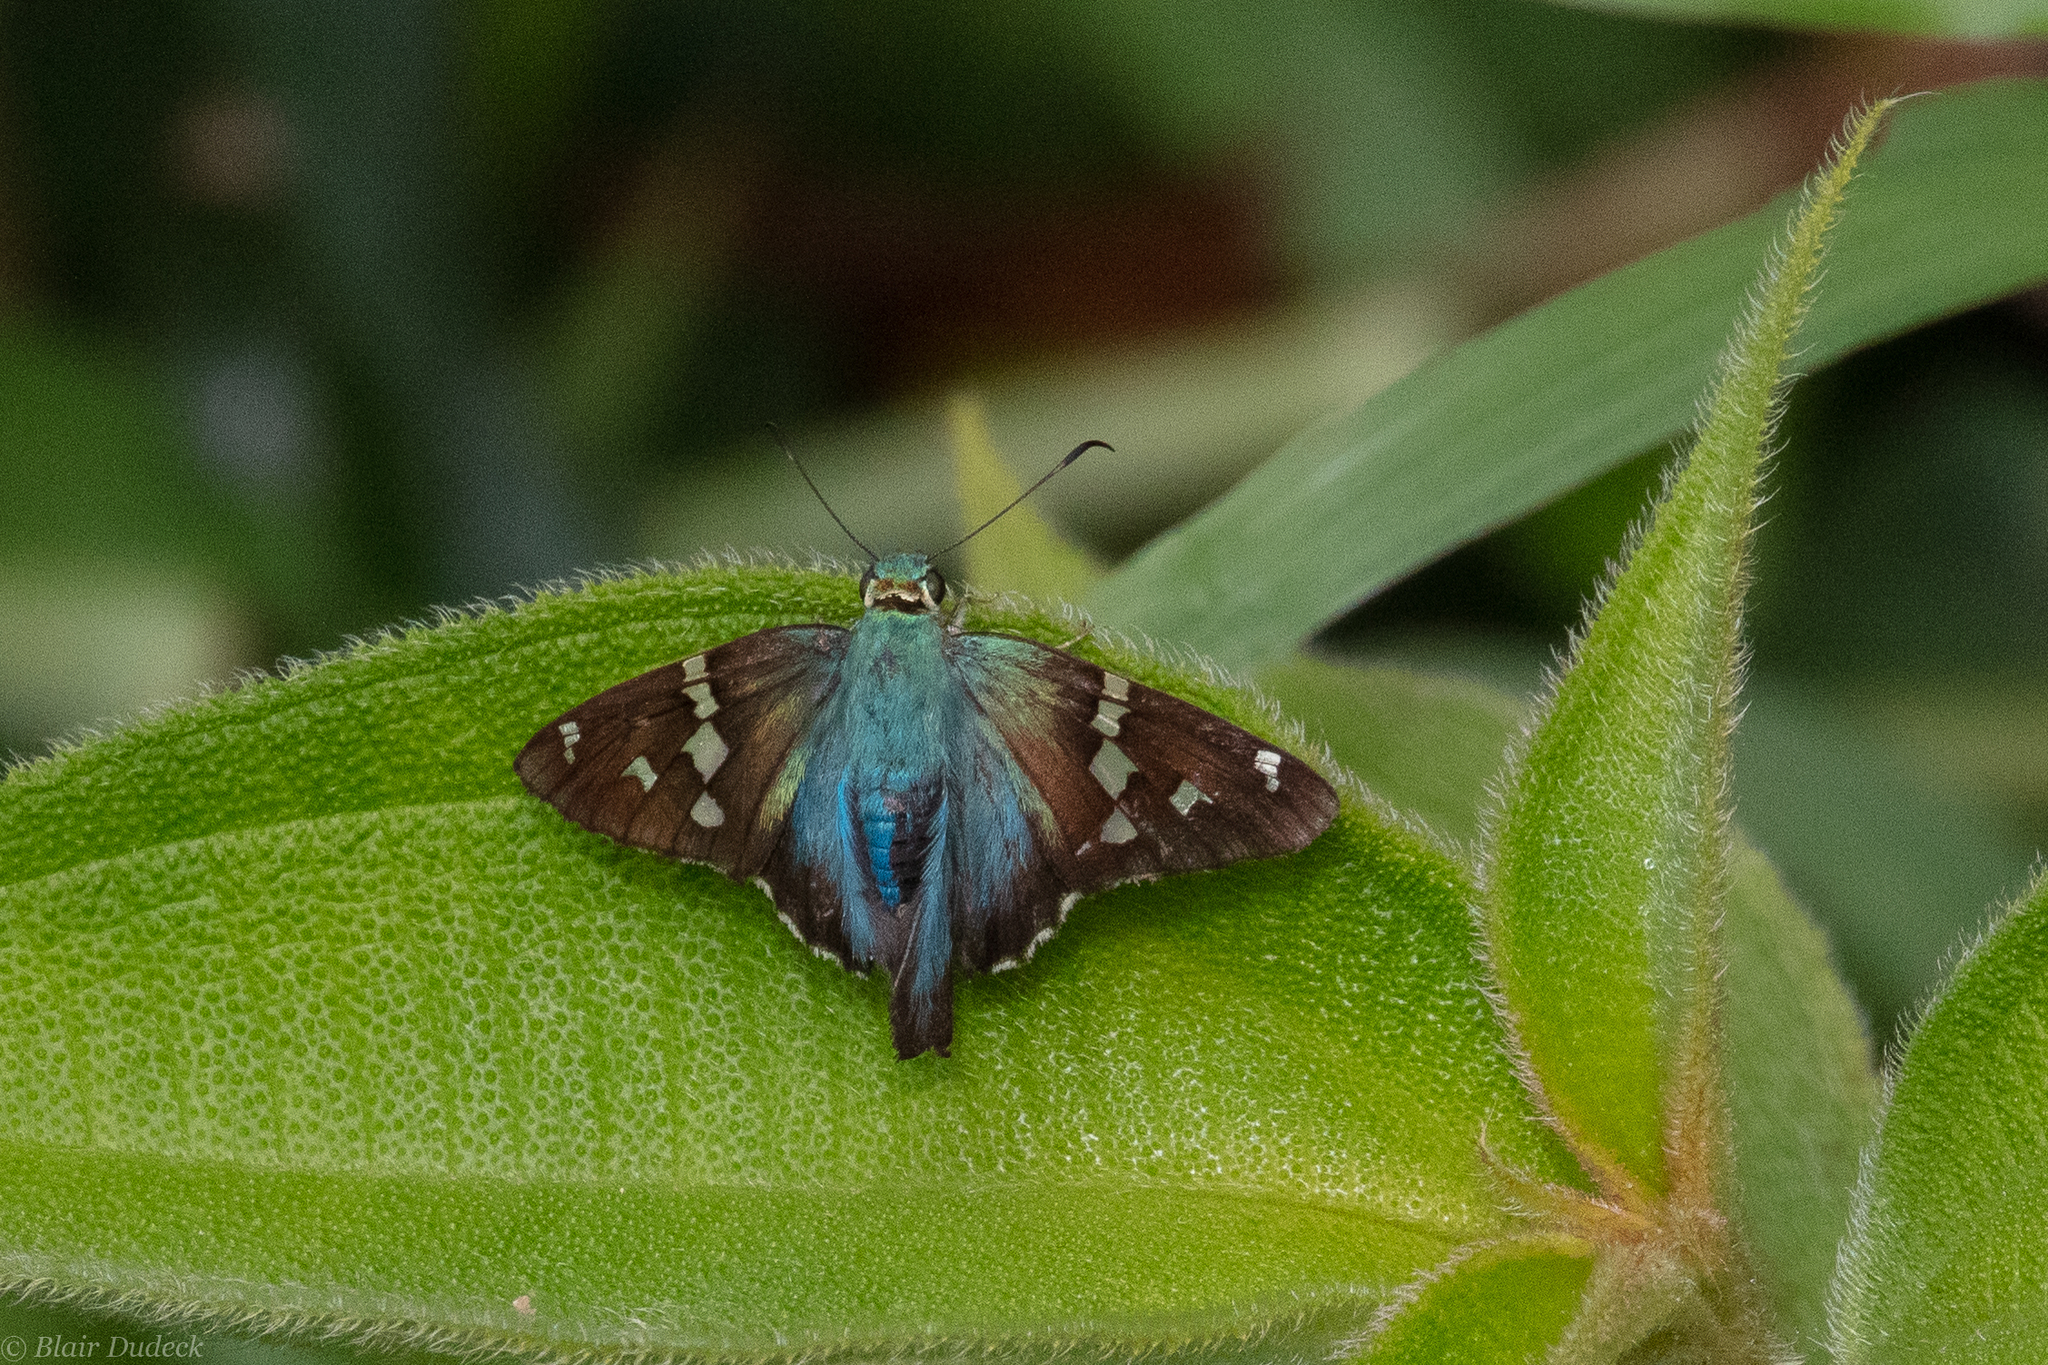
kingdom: Animalia
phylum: Arthropoda
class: Insecta
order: Lepidoptera
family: Hesperiidae
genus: Urbanus
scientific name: Urbanus proteus
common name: Long-tailed skipper
